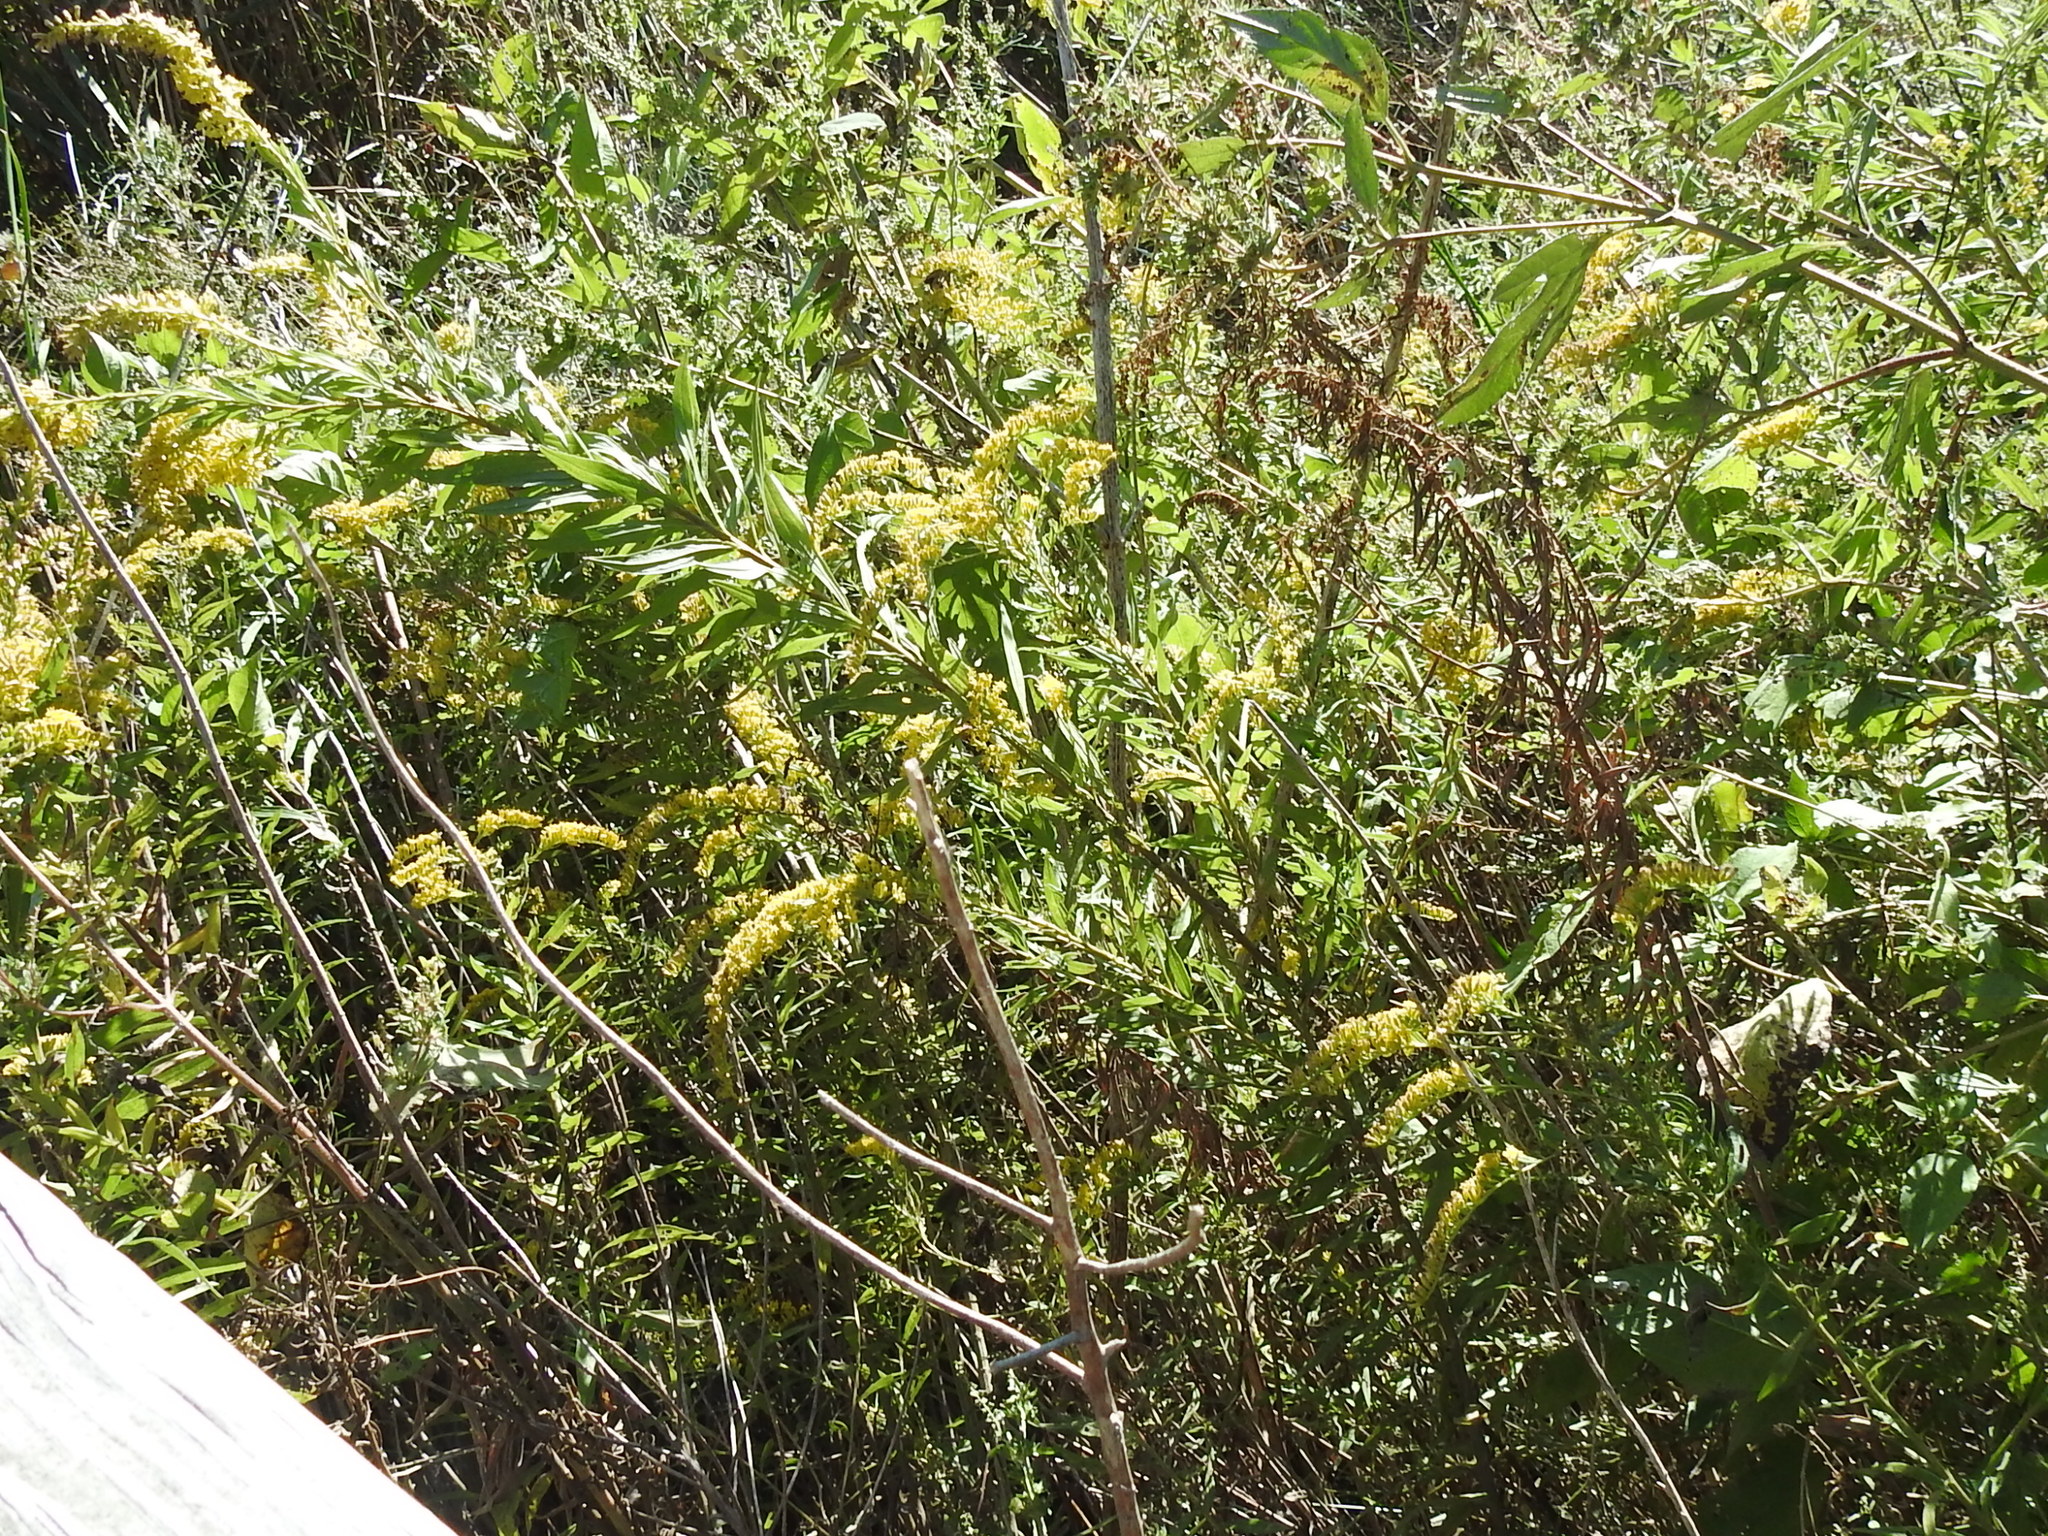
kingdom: Plantae
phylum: Tracheophyta
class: Magnoliopsida
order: Asterales
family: Asteraceae
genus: Solidago
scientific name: Solidago altissima
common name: Late goldenrod
